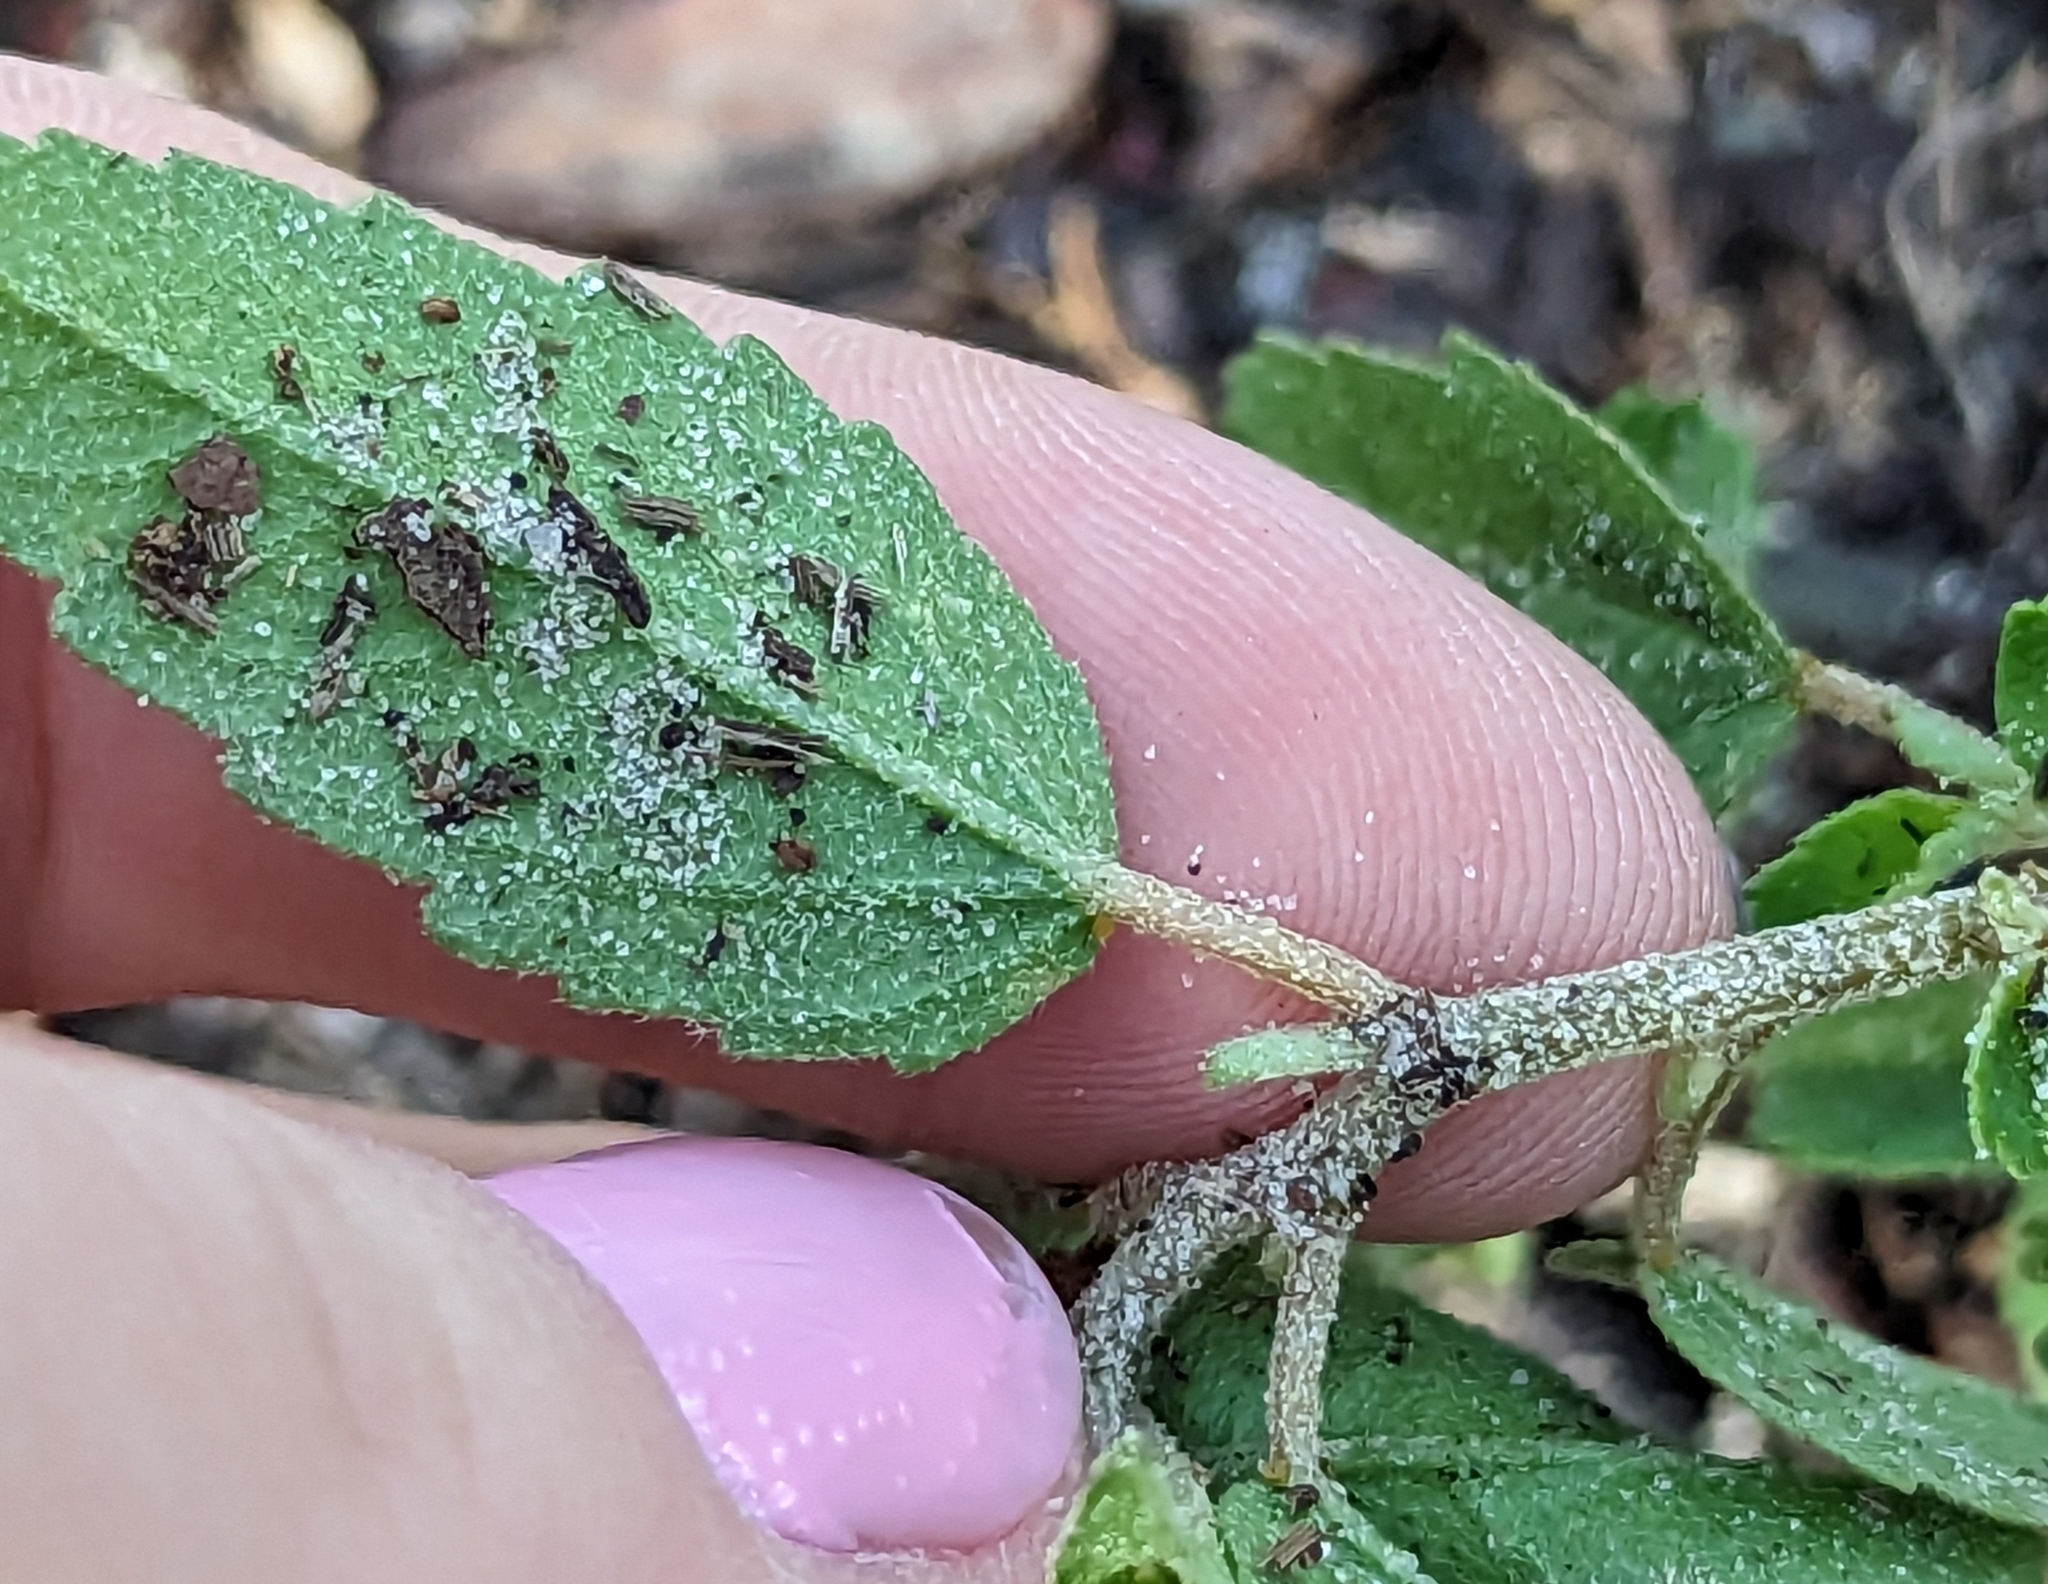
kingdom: Plantae
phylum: Tracheophyta
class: Magnoliopsida
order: Malpighiales
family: Euphorbiaceae
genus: Croton
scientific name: Croton glandulosus
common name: Tropic croton
